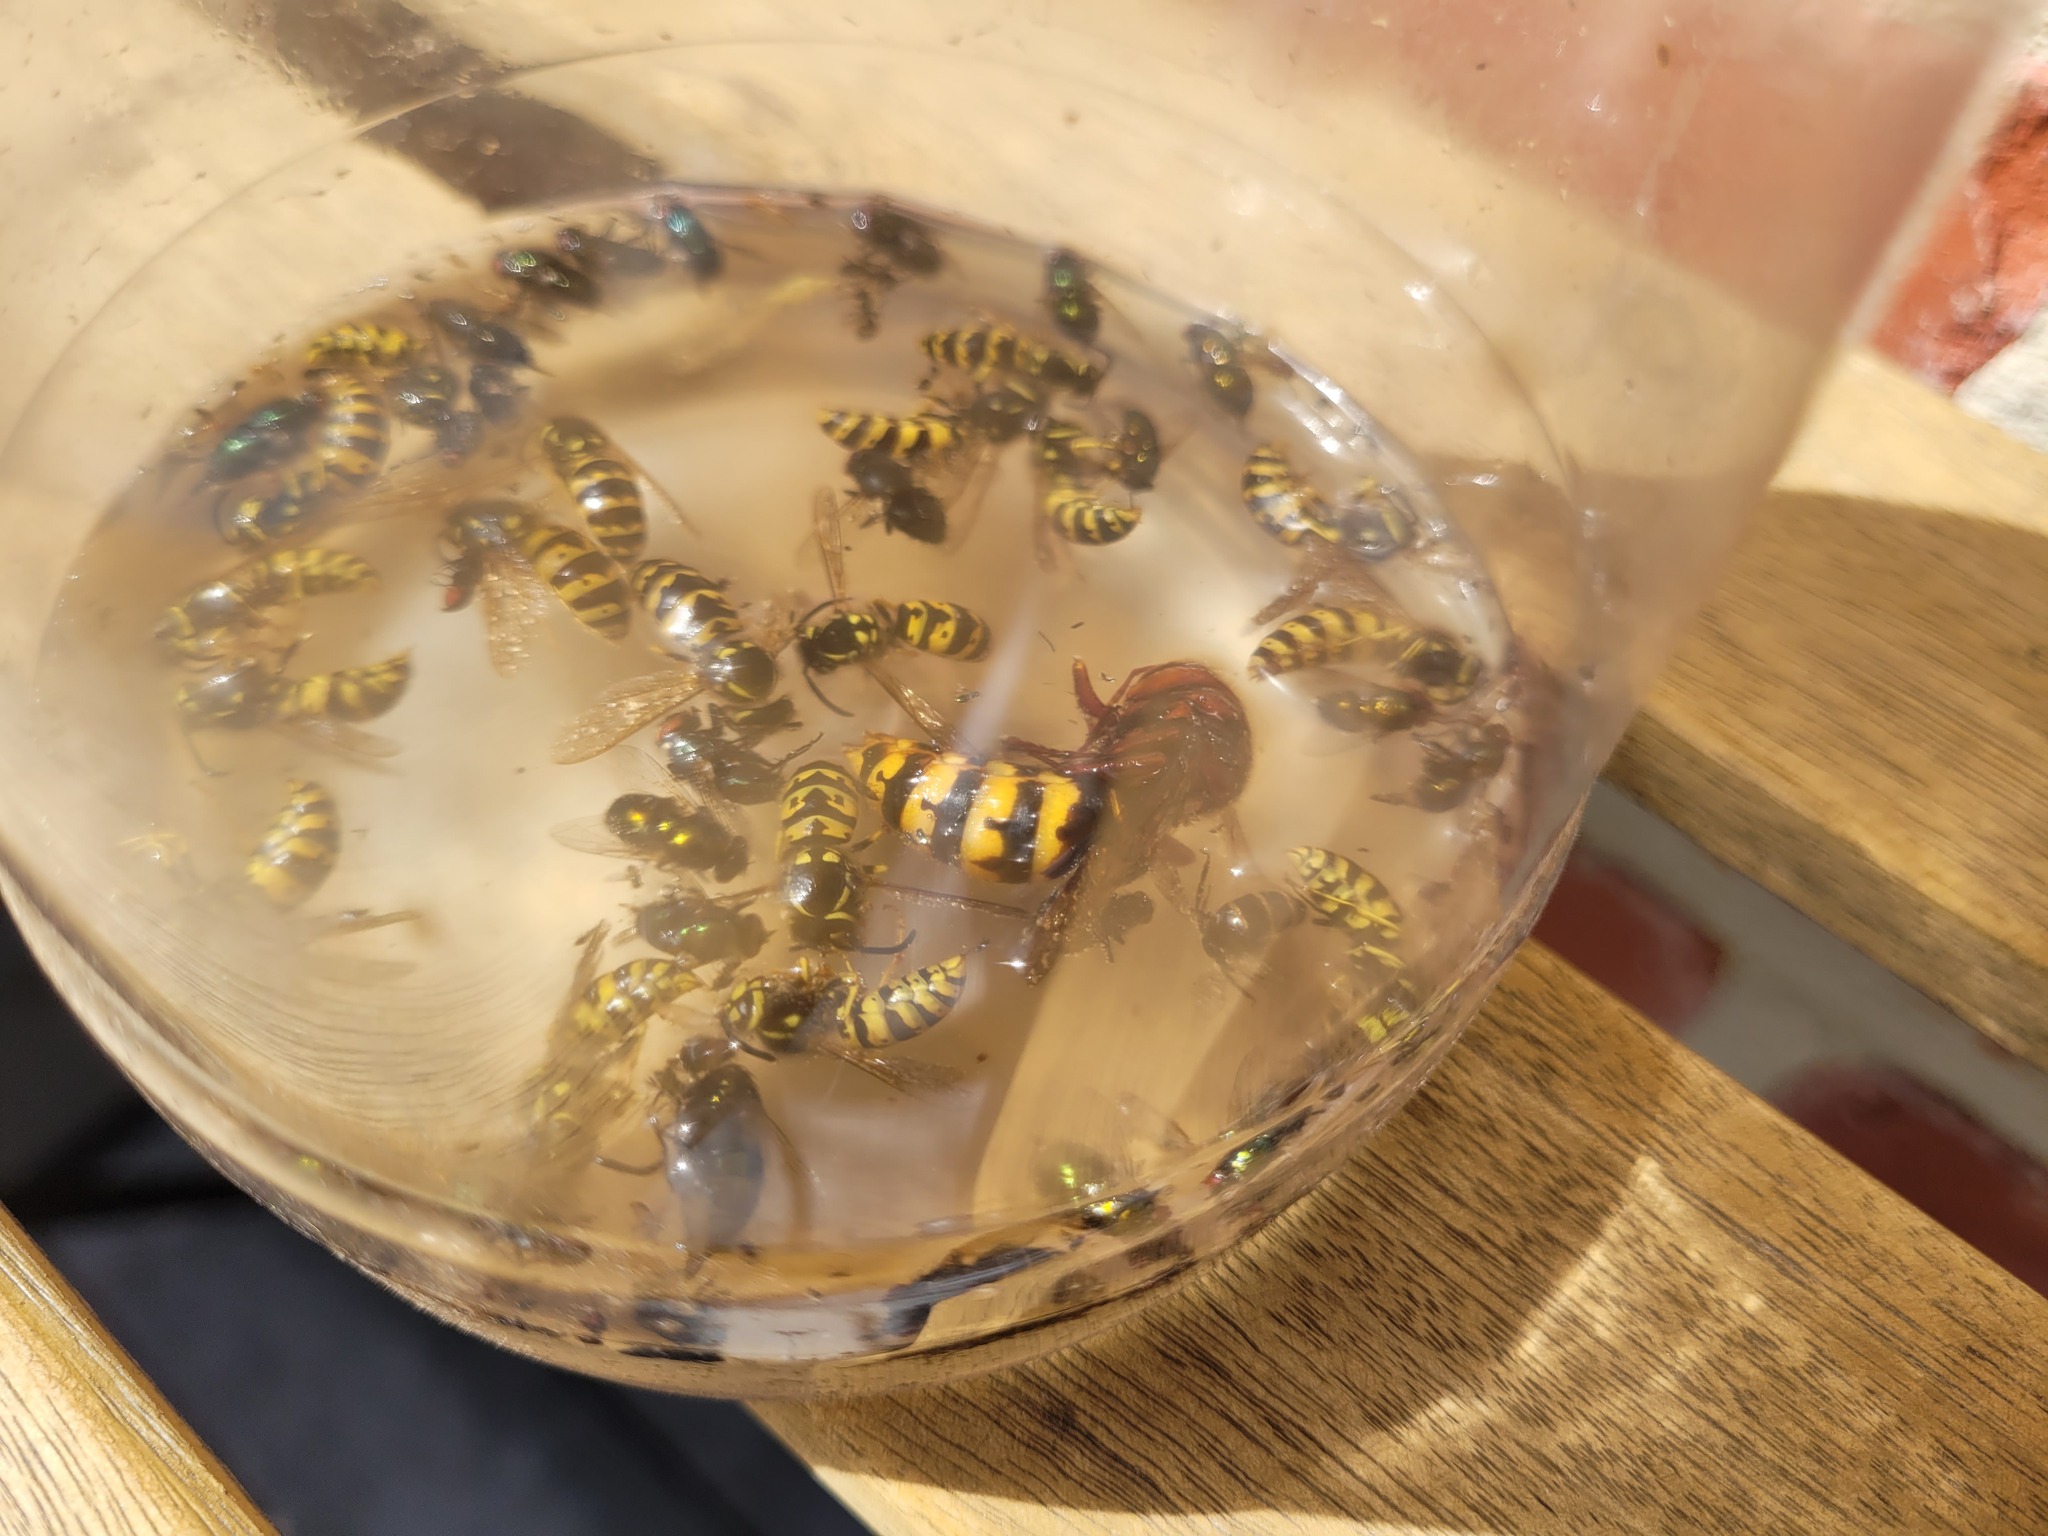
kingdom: Animalia
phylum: Arthropoda
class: Insecta
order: Hymenoptera
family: Vespidae
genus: Vespa
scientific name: Vespa crabro
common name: Hornet
